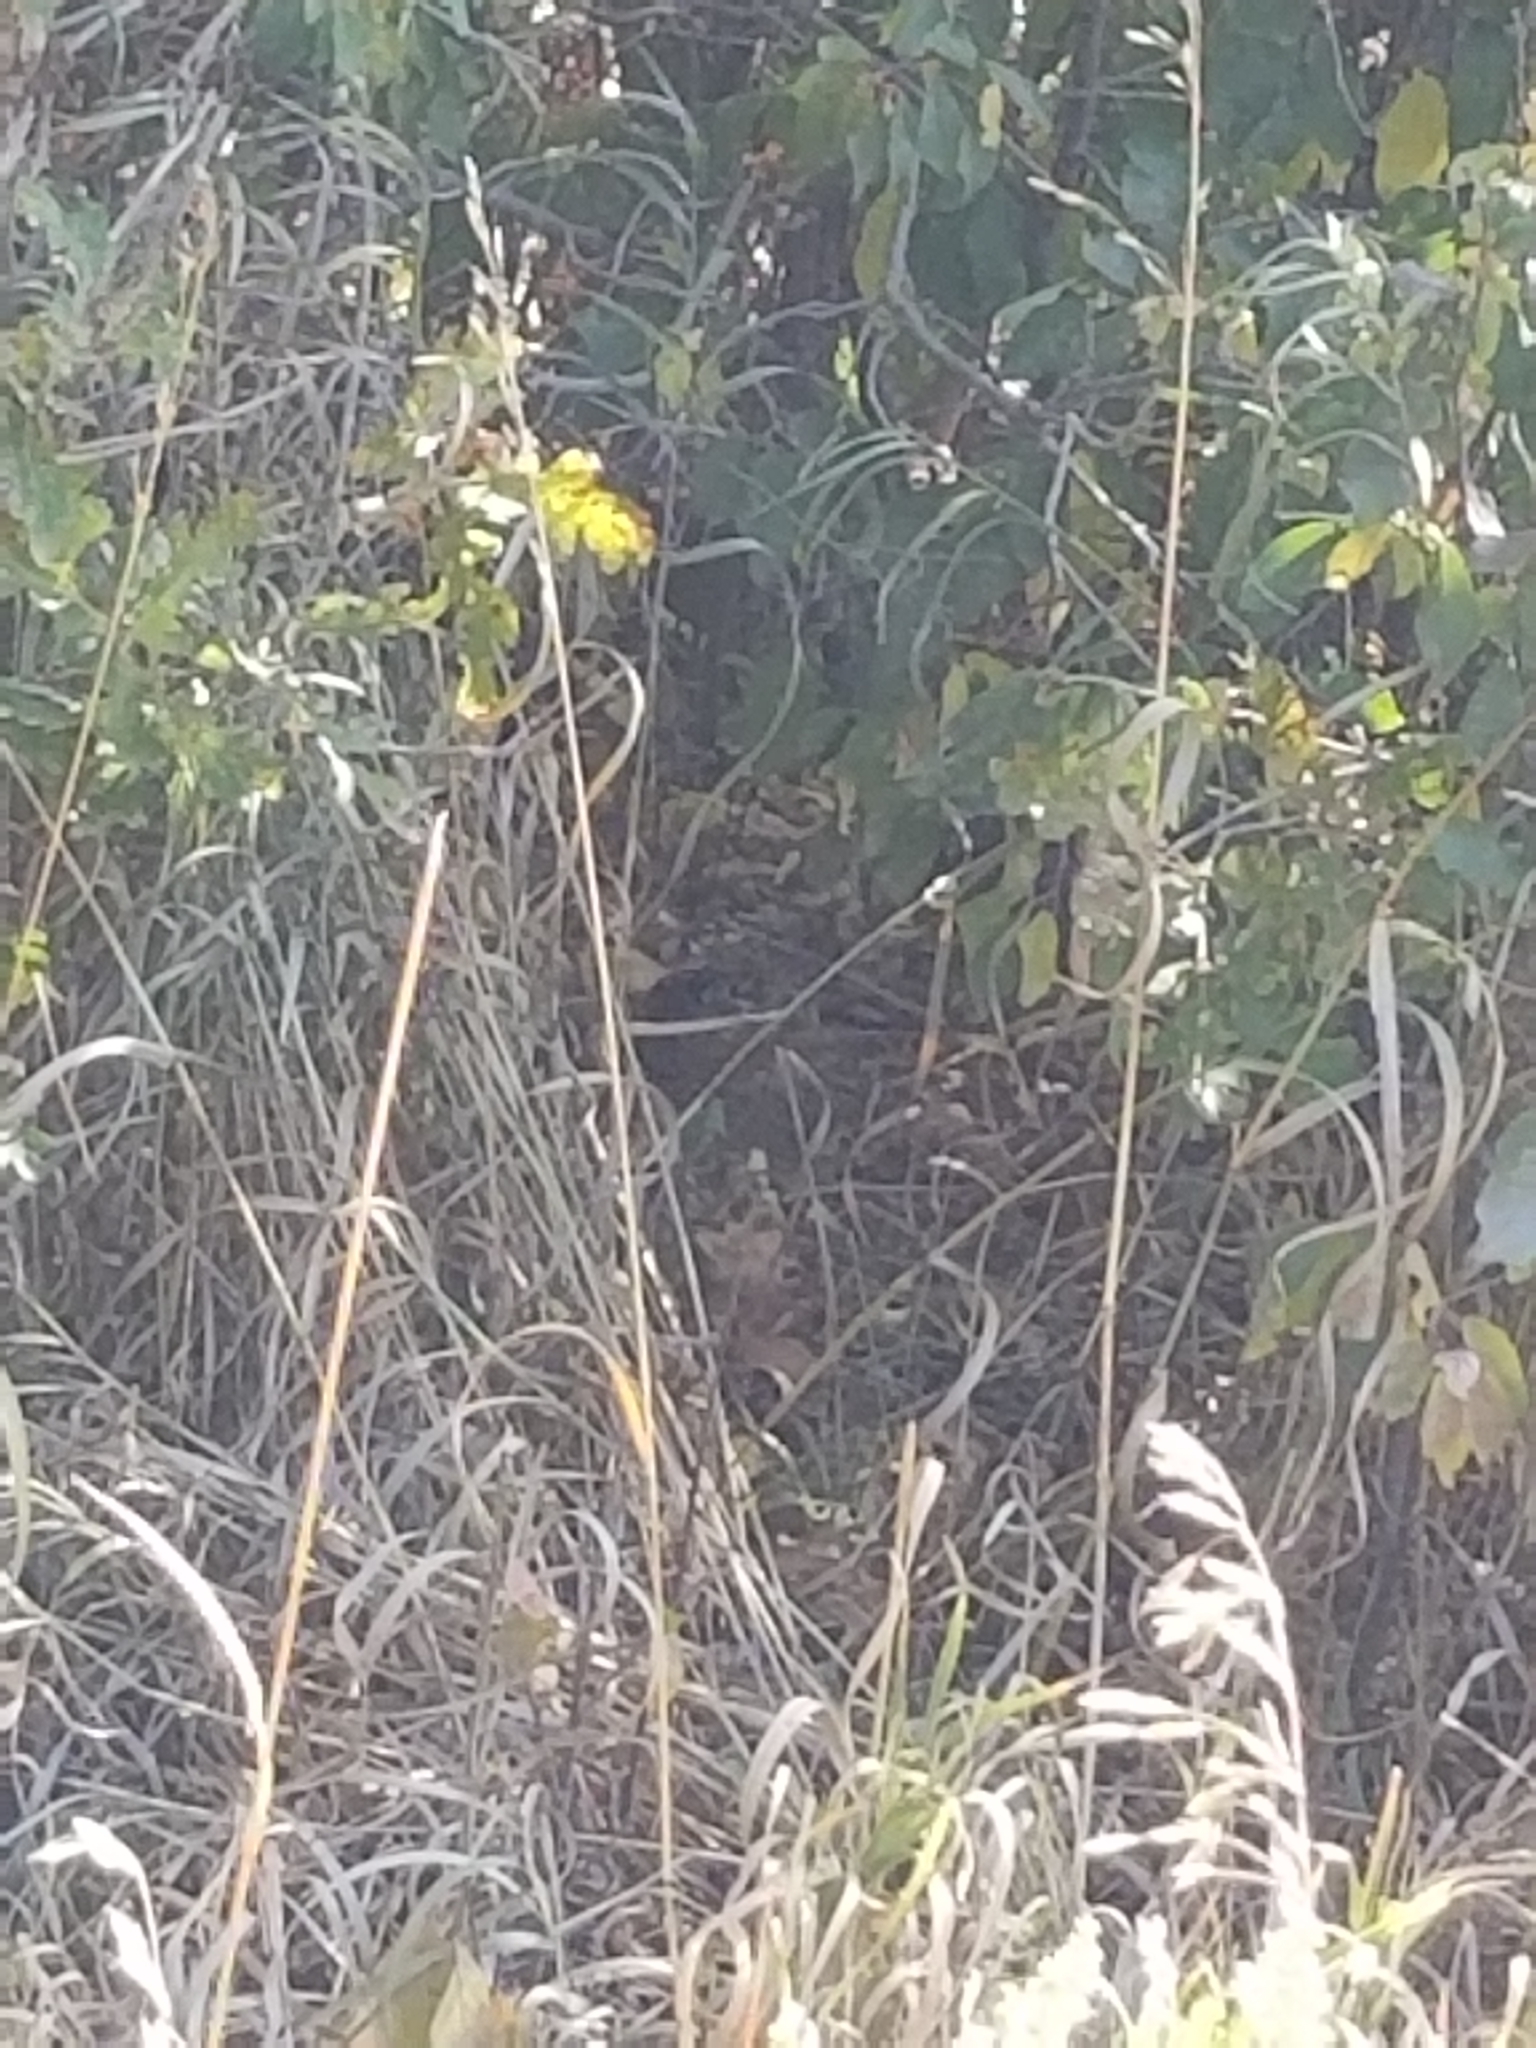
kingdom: Animalia
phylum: Chordata
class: Aves
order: Passeriformes
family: Passerellidae
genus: Pipilo
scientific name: Pipilo maculatus
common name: Spotted towhee
